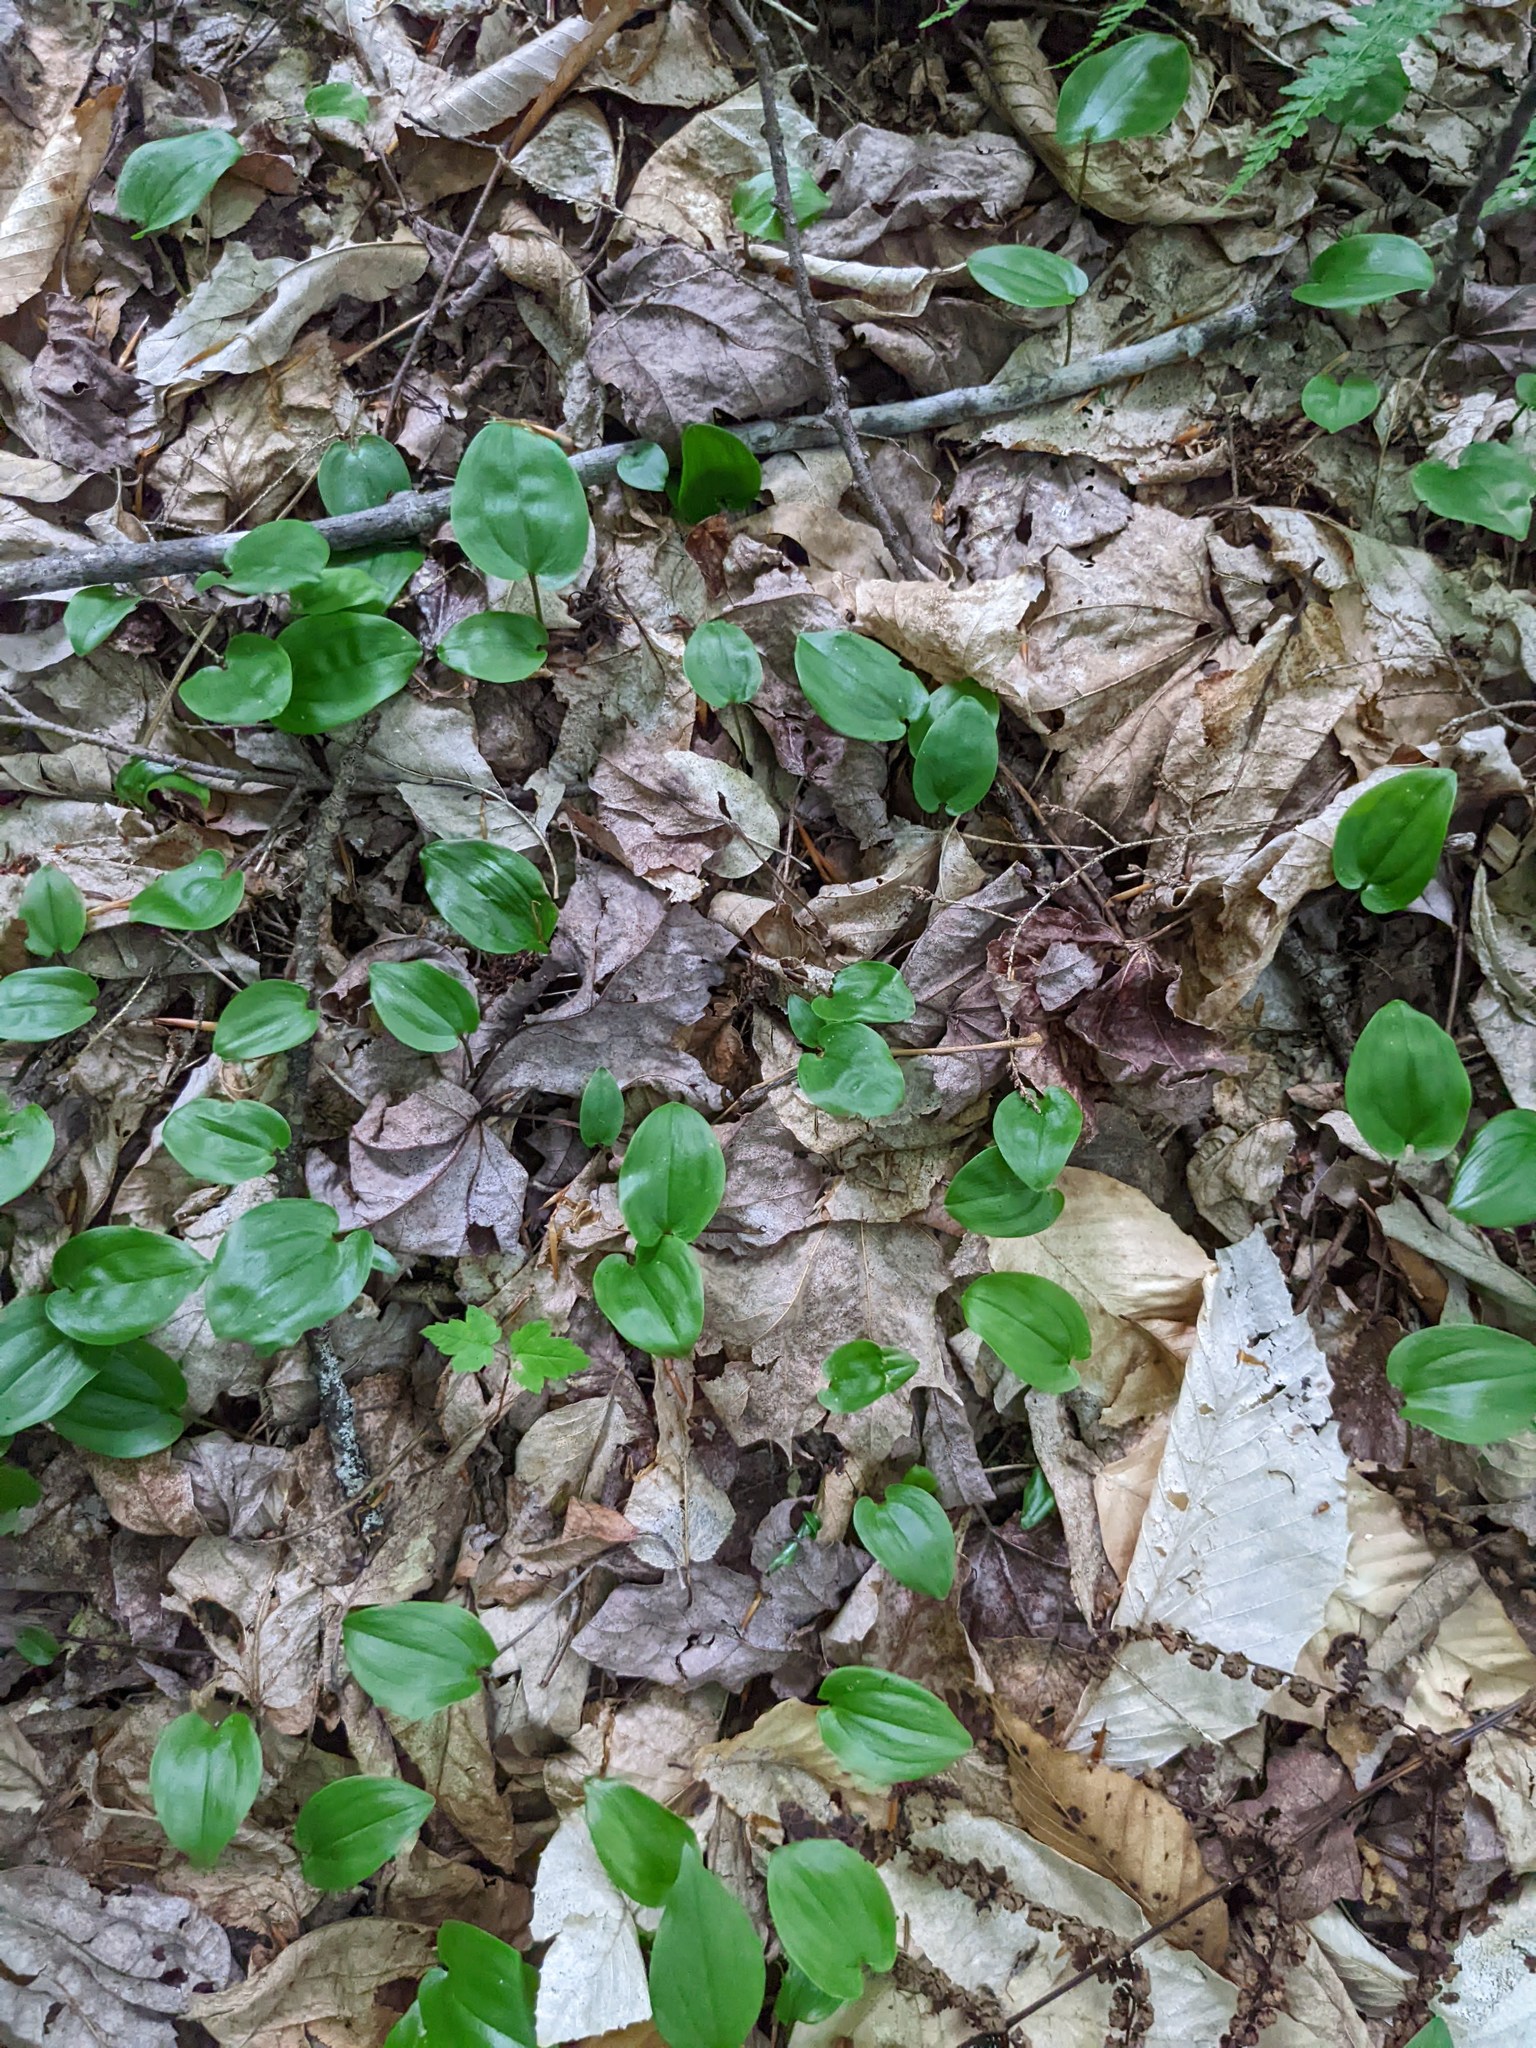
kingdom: Plantae
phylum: Tracheophyta
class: Liliopsida
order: Asparagales
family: Asparagaceae
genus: Maianthemum
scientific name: Maianthemum canadense
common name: False lily-of-the-valley
